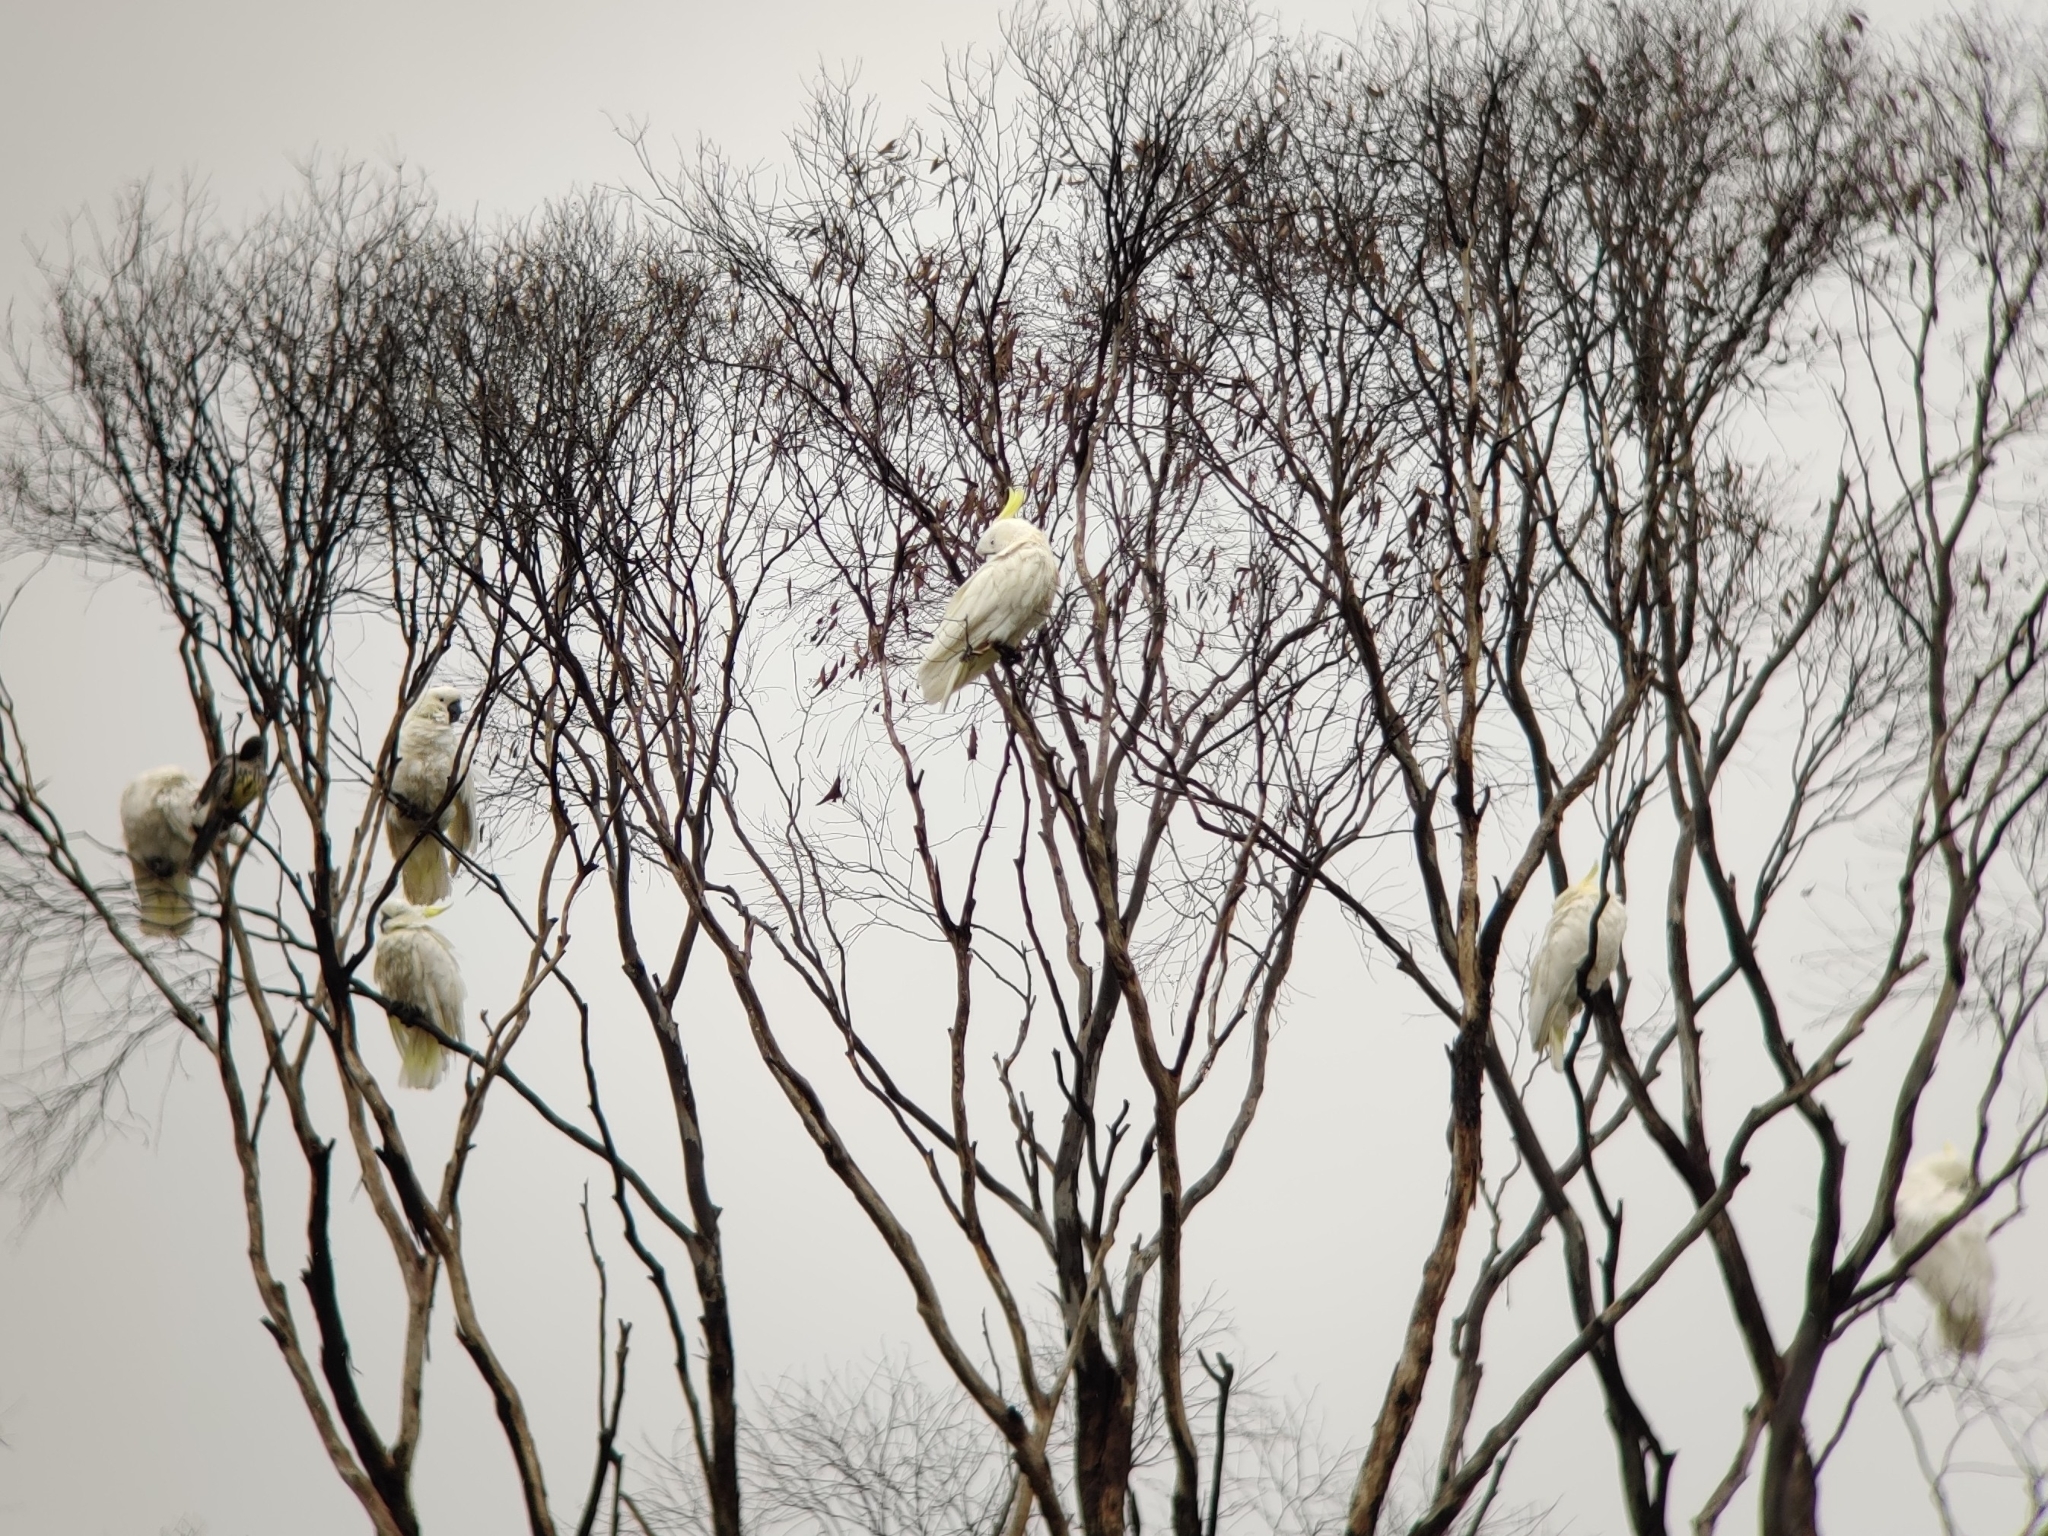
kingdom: Animalia
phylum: Chordata
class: Aves
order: Psittaciformes
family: Psittacidae
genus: Cacatua
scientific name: Cacatua galerita
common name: Sulphur-crested cockatoo
